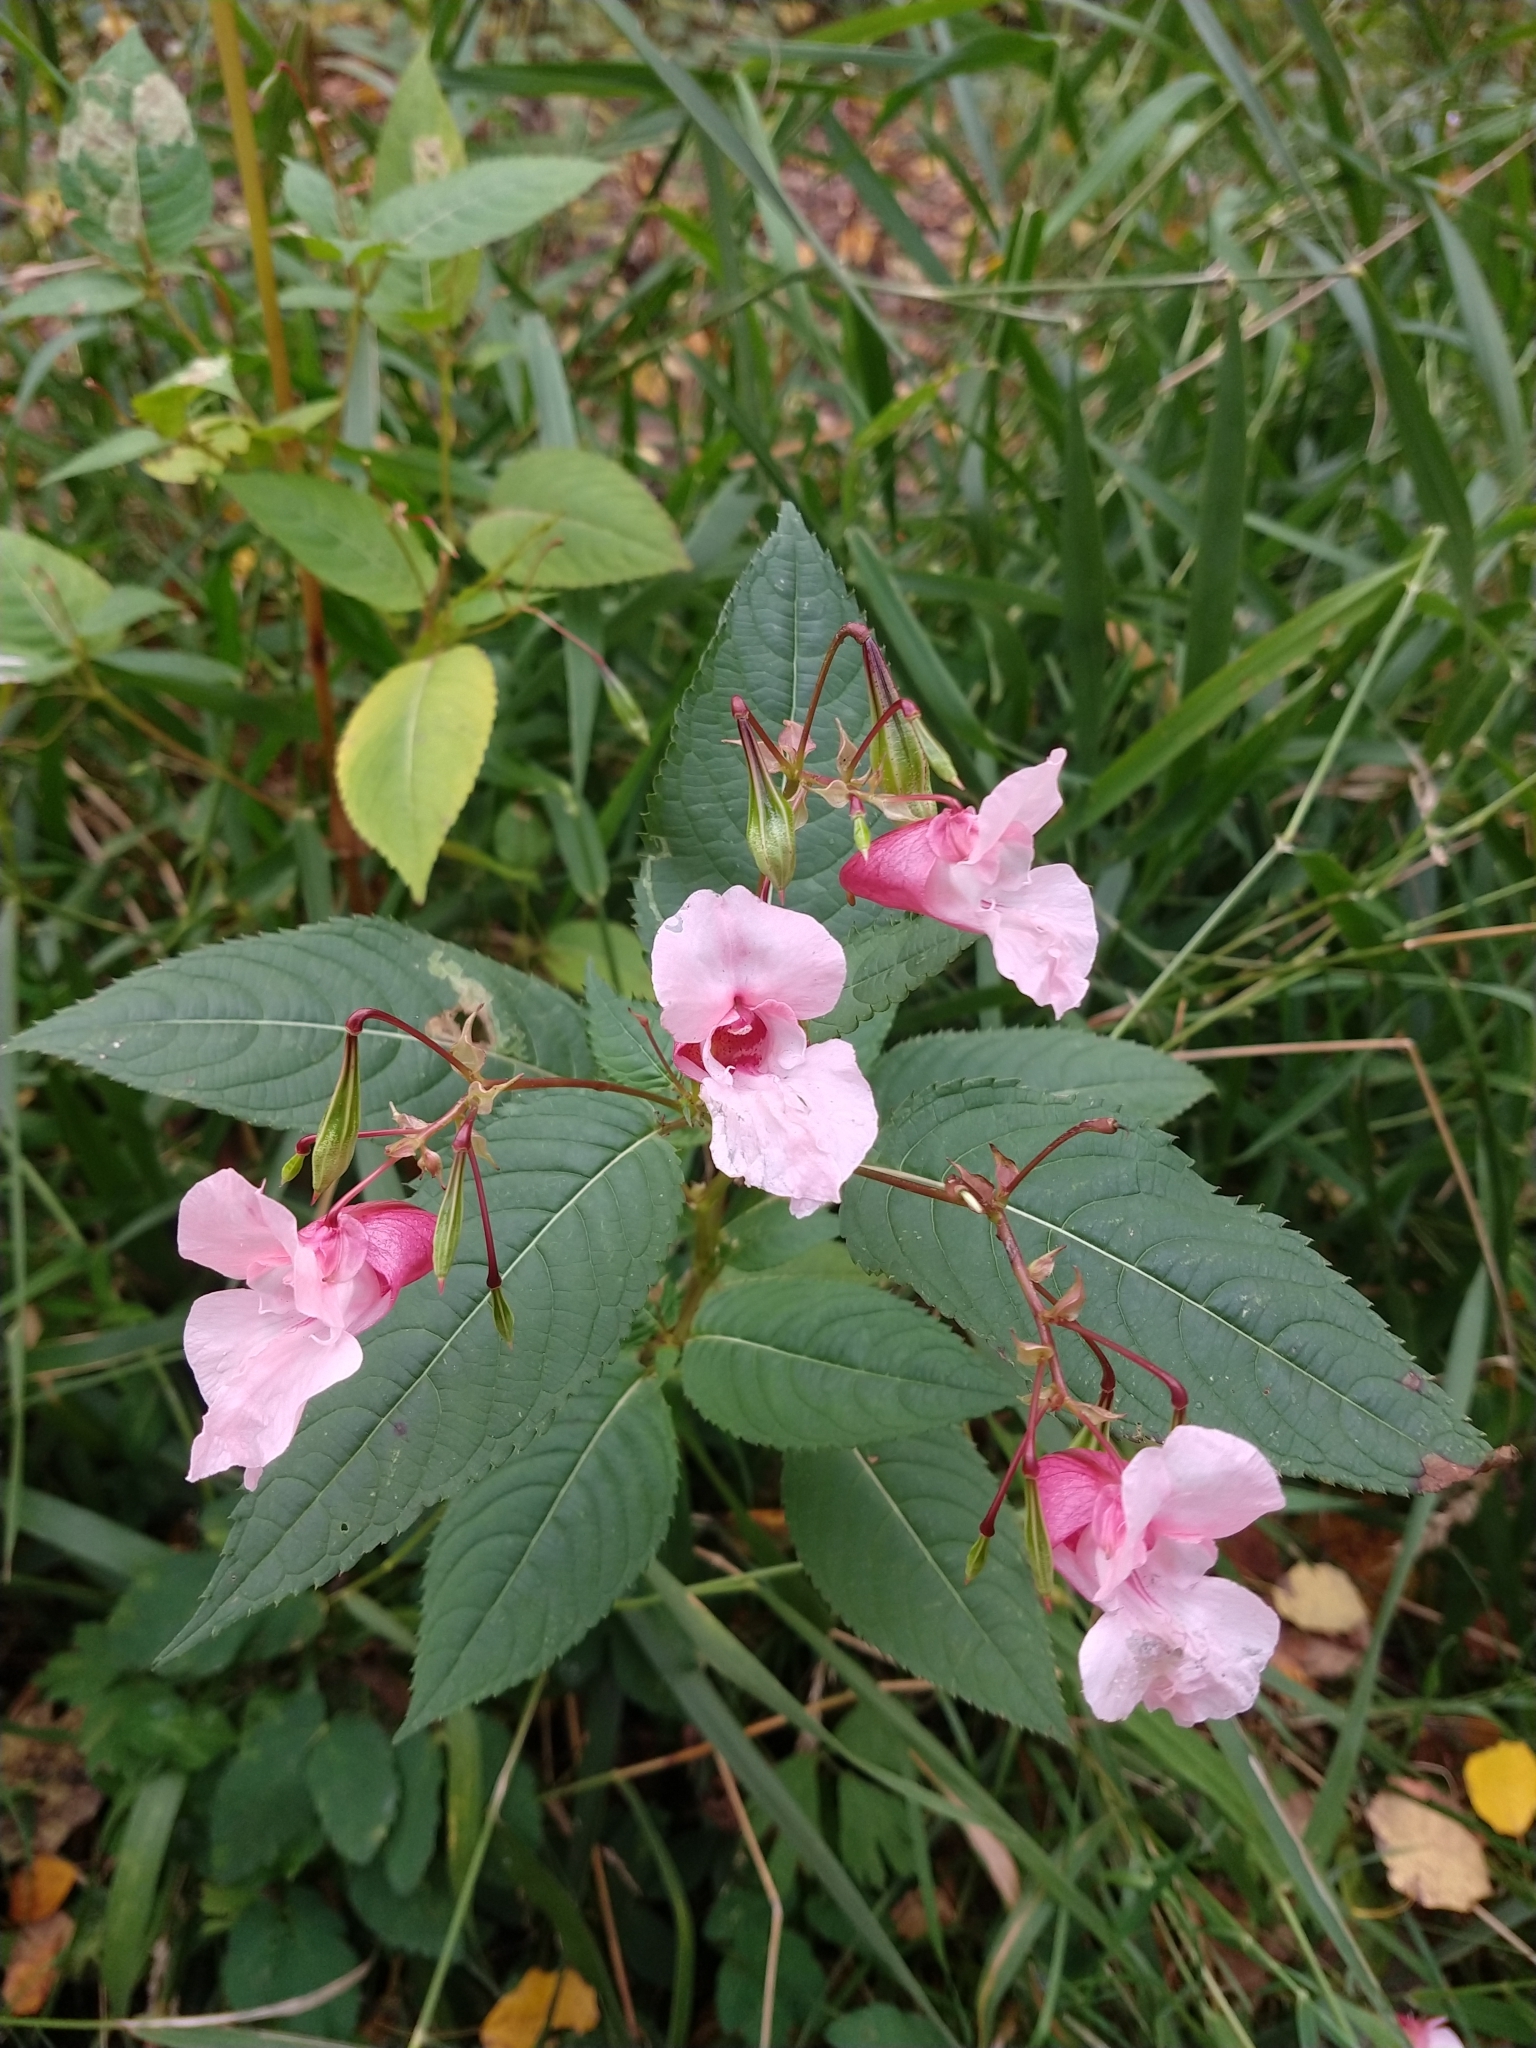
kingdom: Plantae
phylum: Tracheophyta
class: Magnoliopsida
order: Ericales
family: Balsaminaceae
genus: Impatiens
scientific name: Impatiens glandulifera
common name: Himalayan balsam
